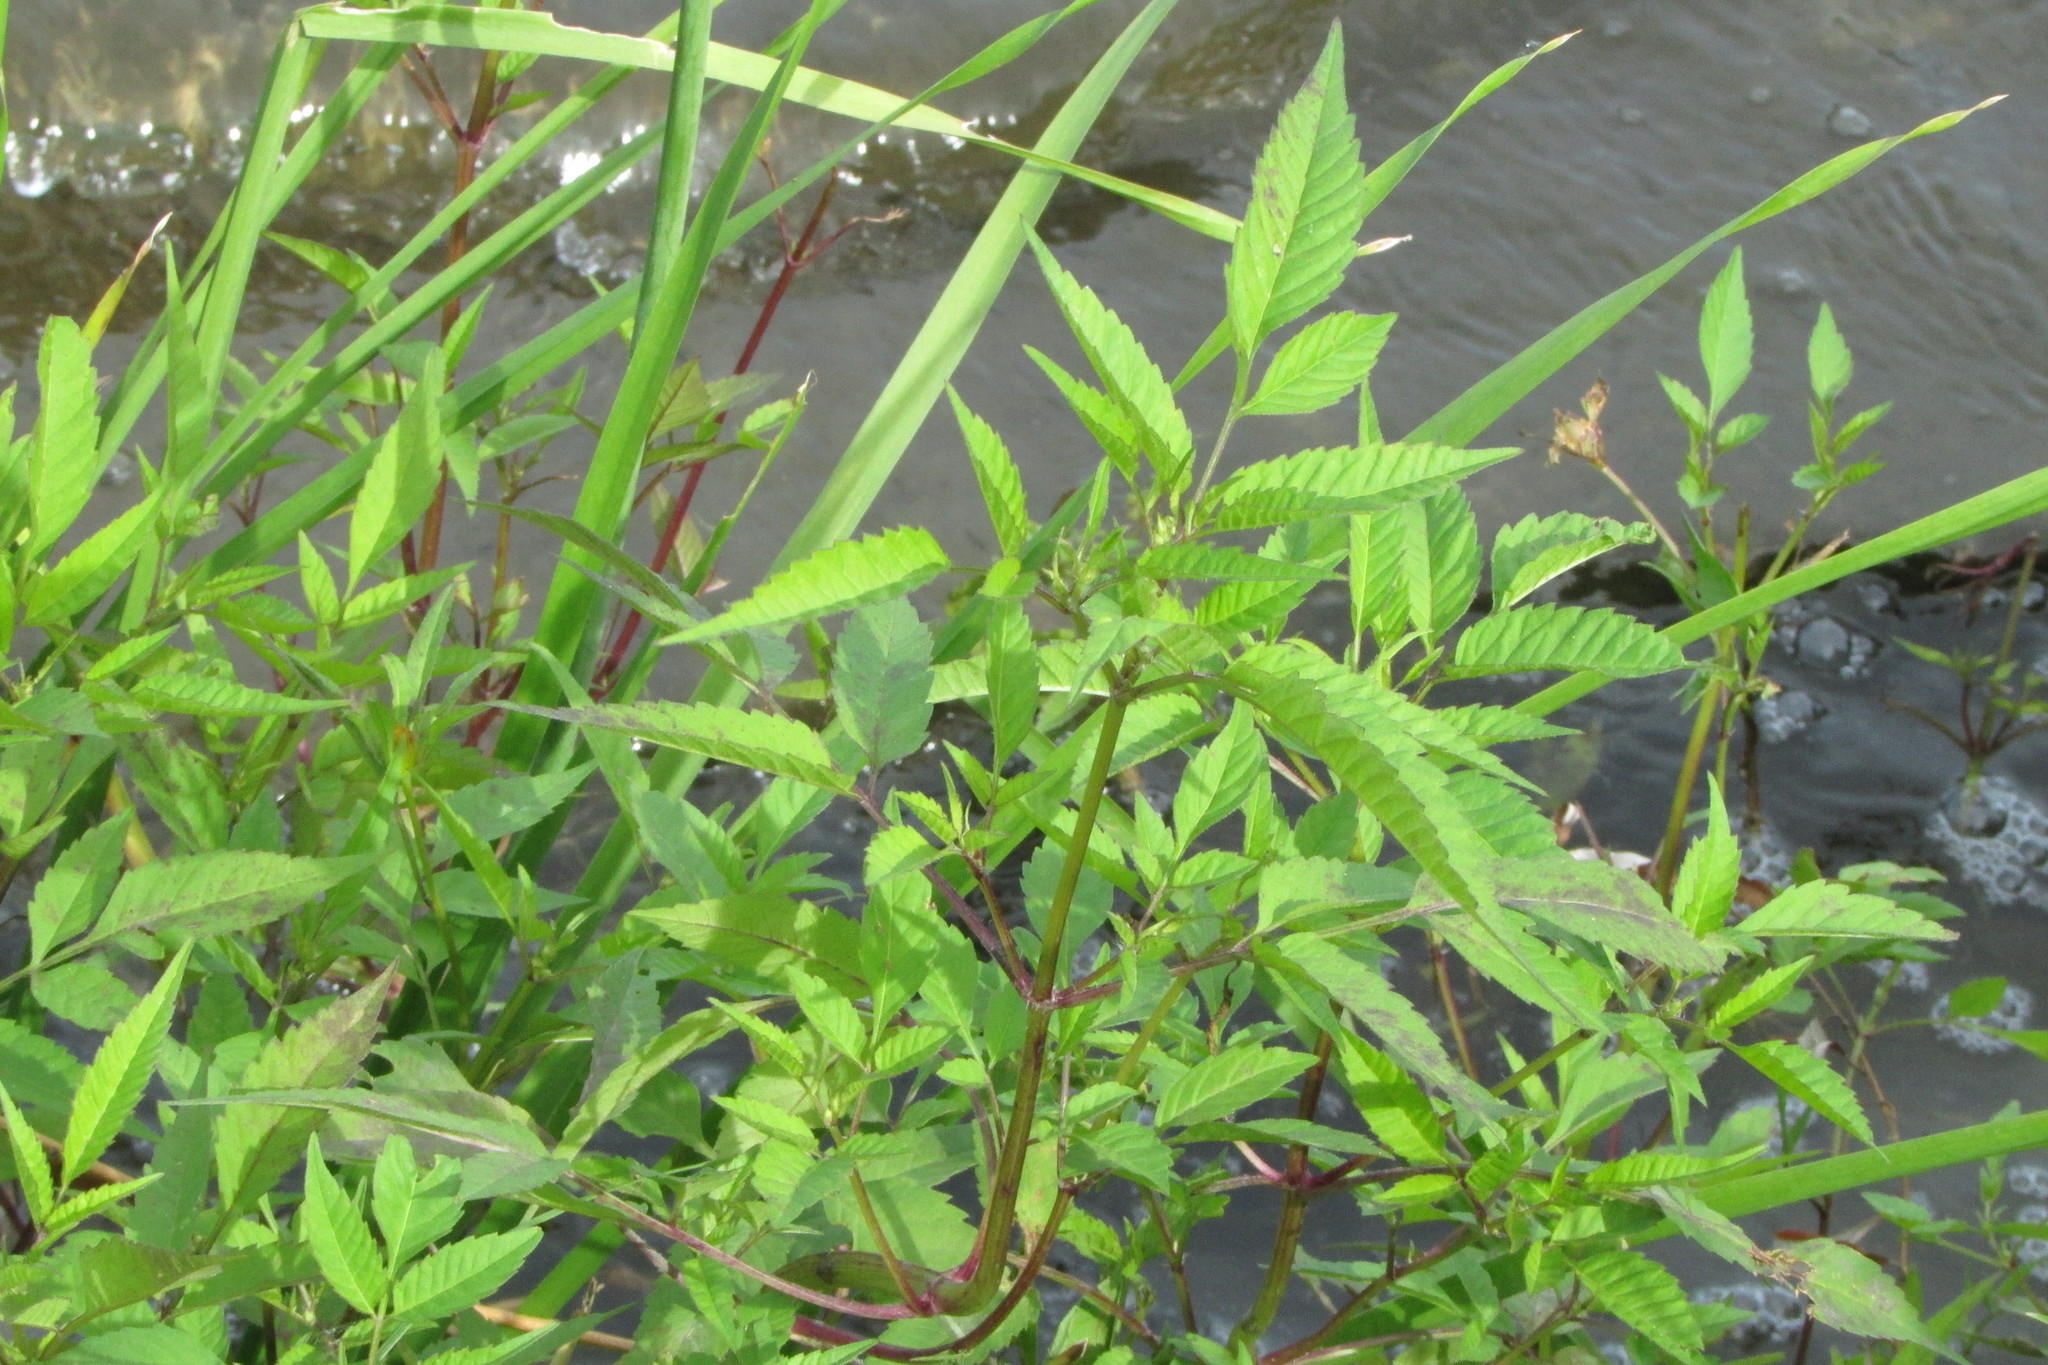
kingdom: Plantae
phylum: Tracheophyta
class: Magnoliopsida
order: Asterales
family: Asteraceae
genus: Bidens
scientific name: Bidens frondosa
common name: Beggarticks
